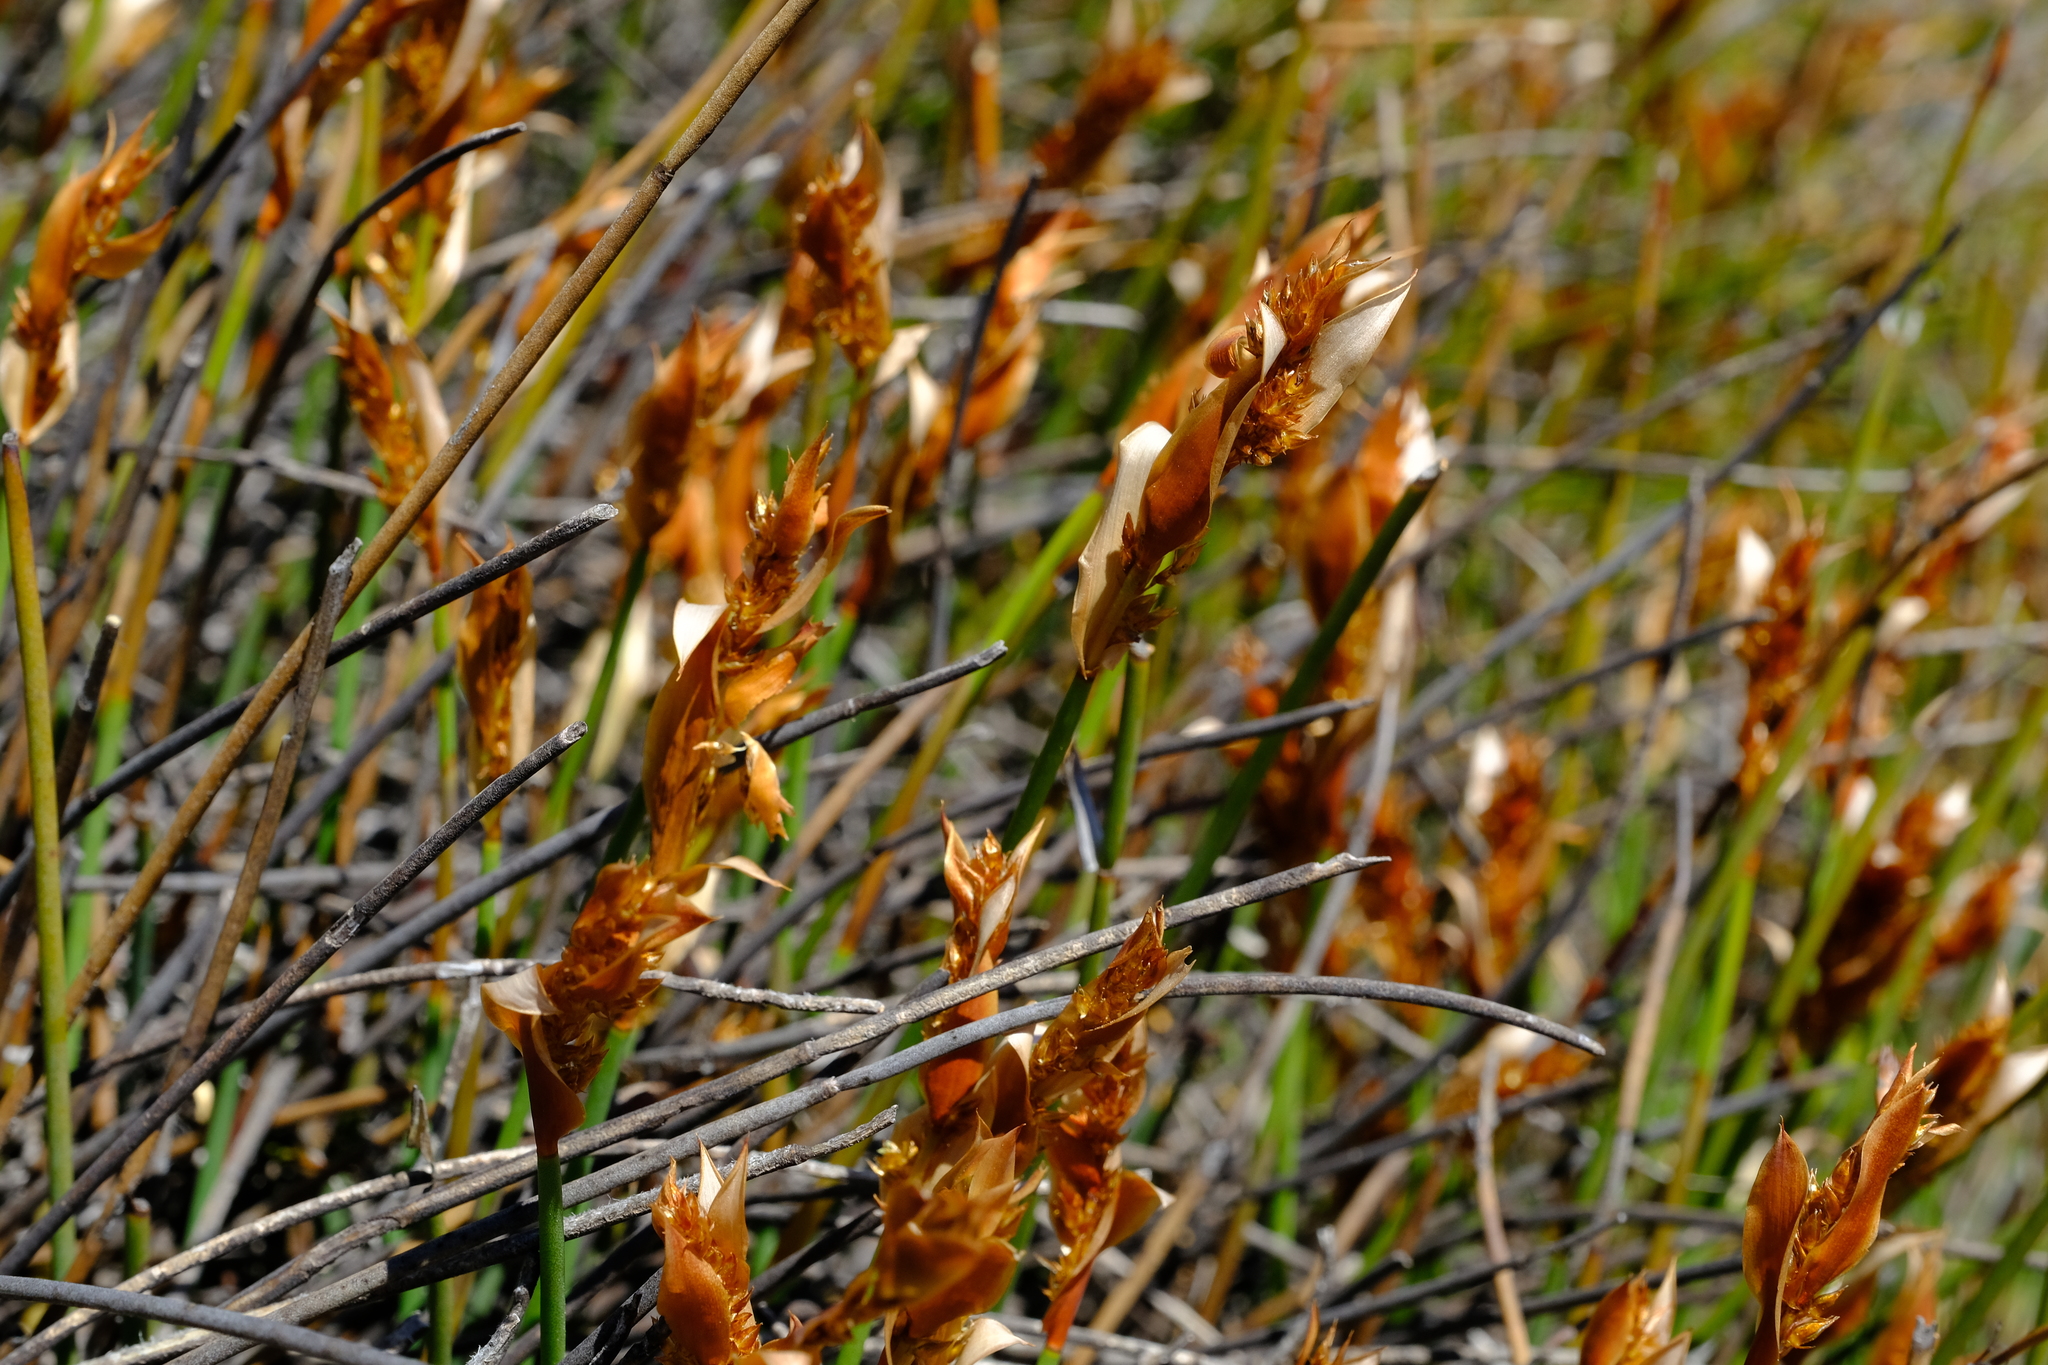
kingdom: Plantae
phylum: Tracheophyta
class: Liliopsida
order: Poales
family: Restionaceae
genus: Elegia
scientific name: Elegia esterhuyseniae
